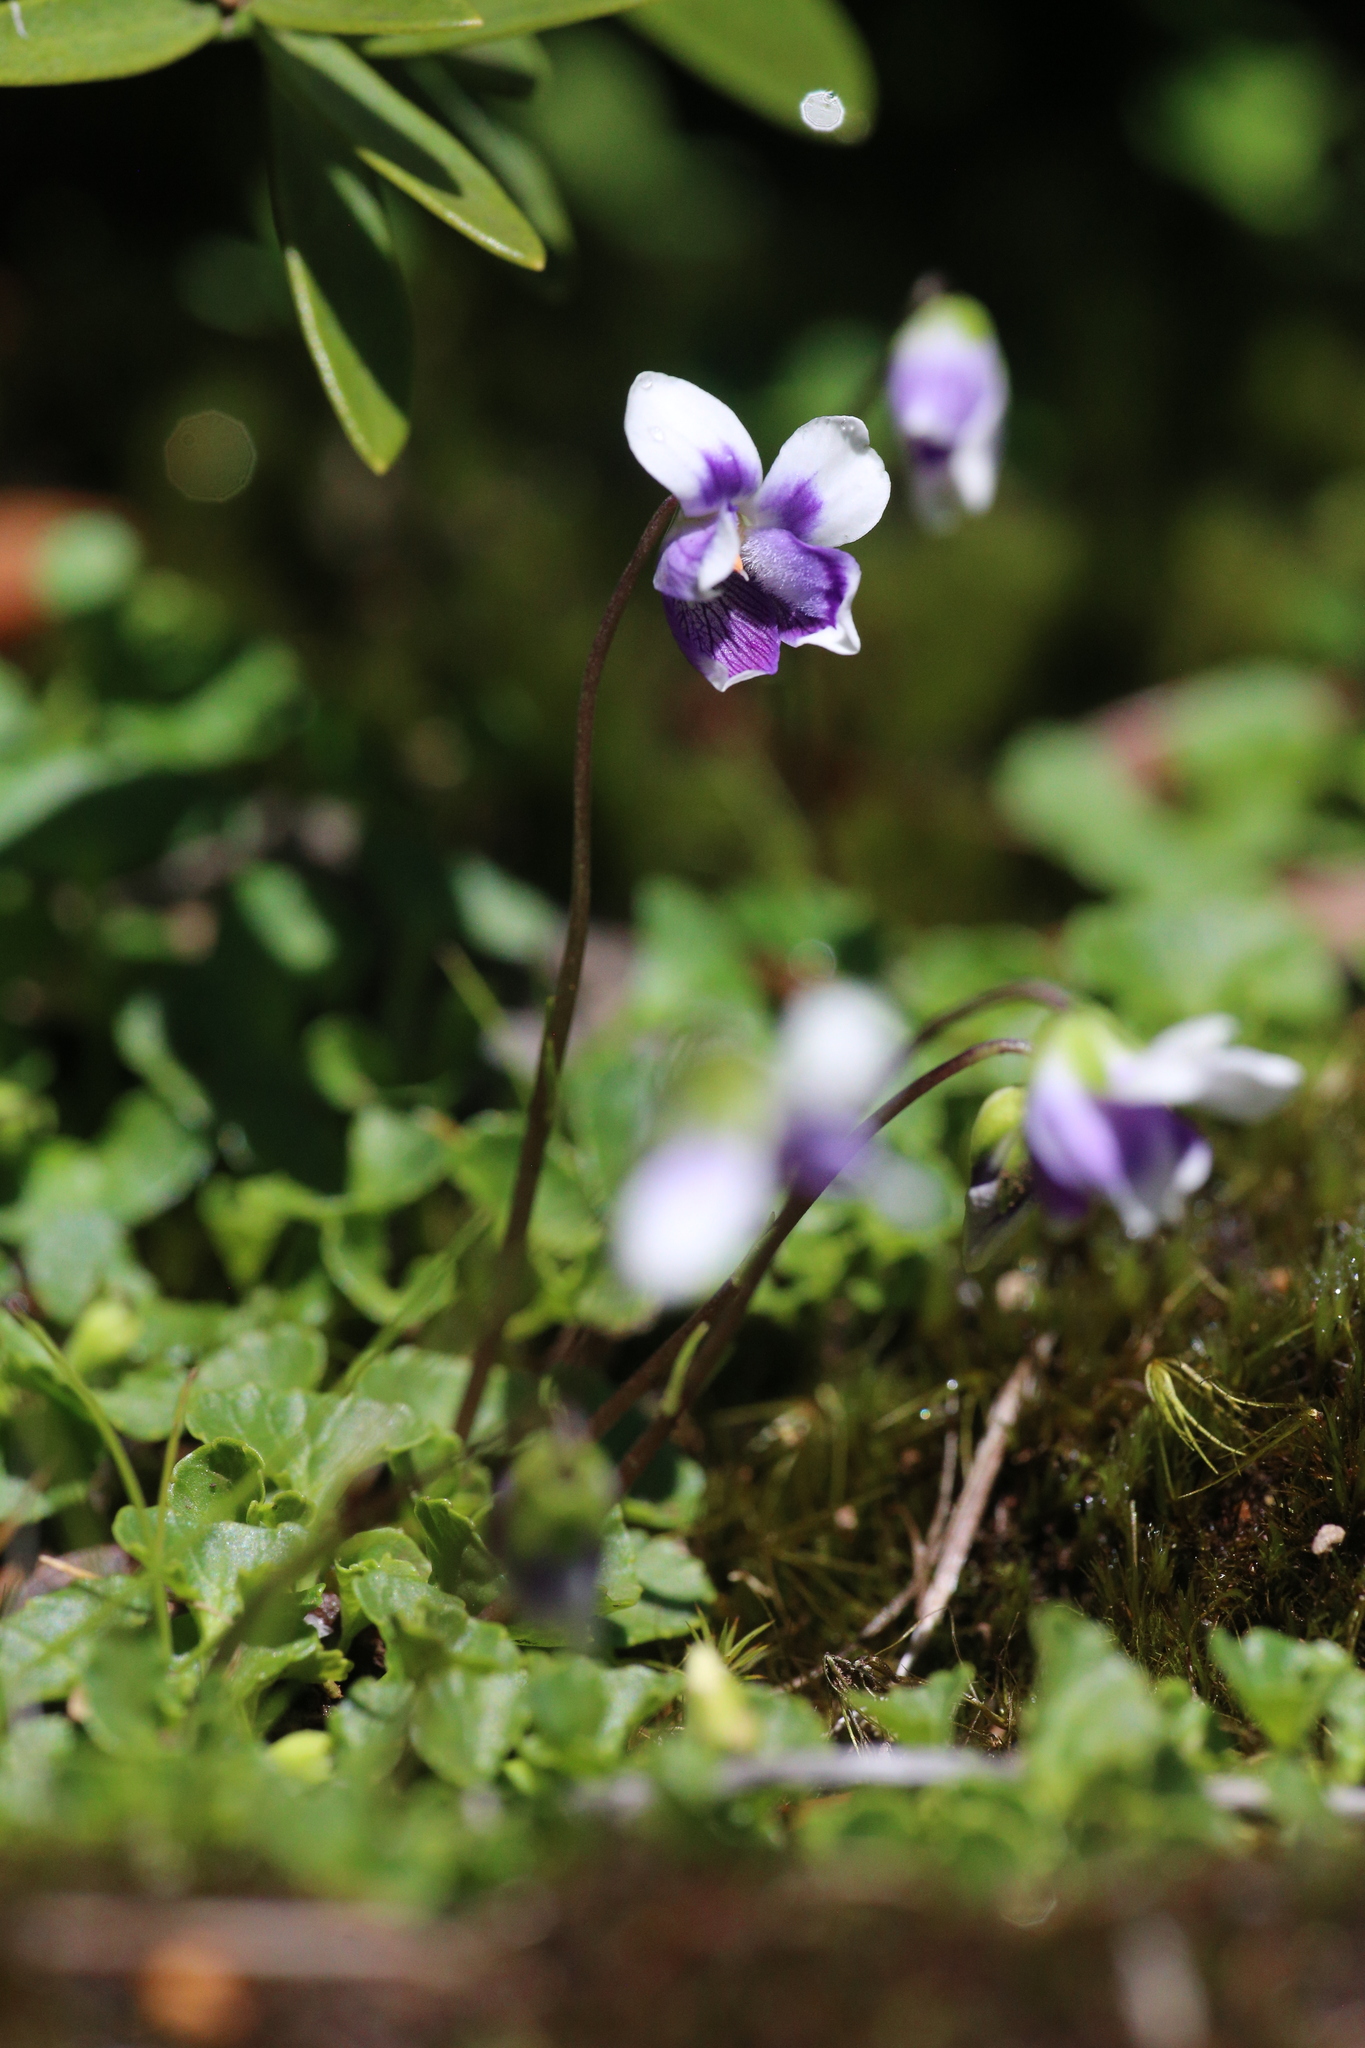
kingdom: Plantae
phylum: Tracheophyta
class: Magnoliopsida
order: Malpighiales
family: Violaceae
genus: Viola
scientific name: Viola eminens
